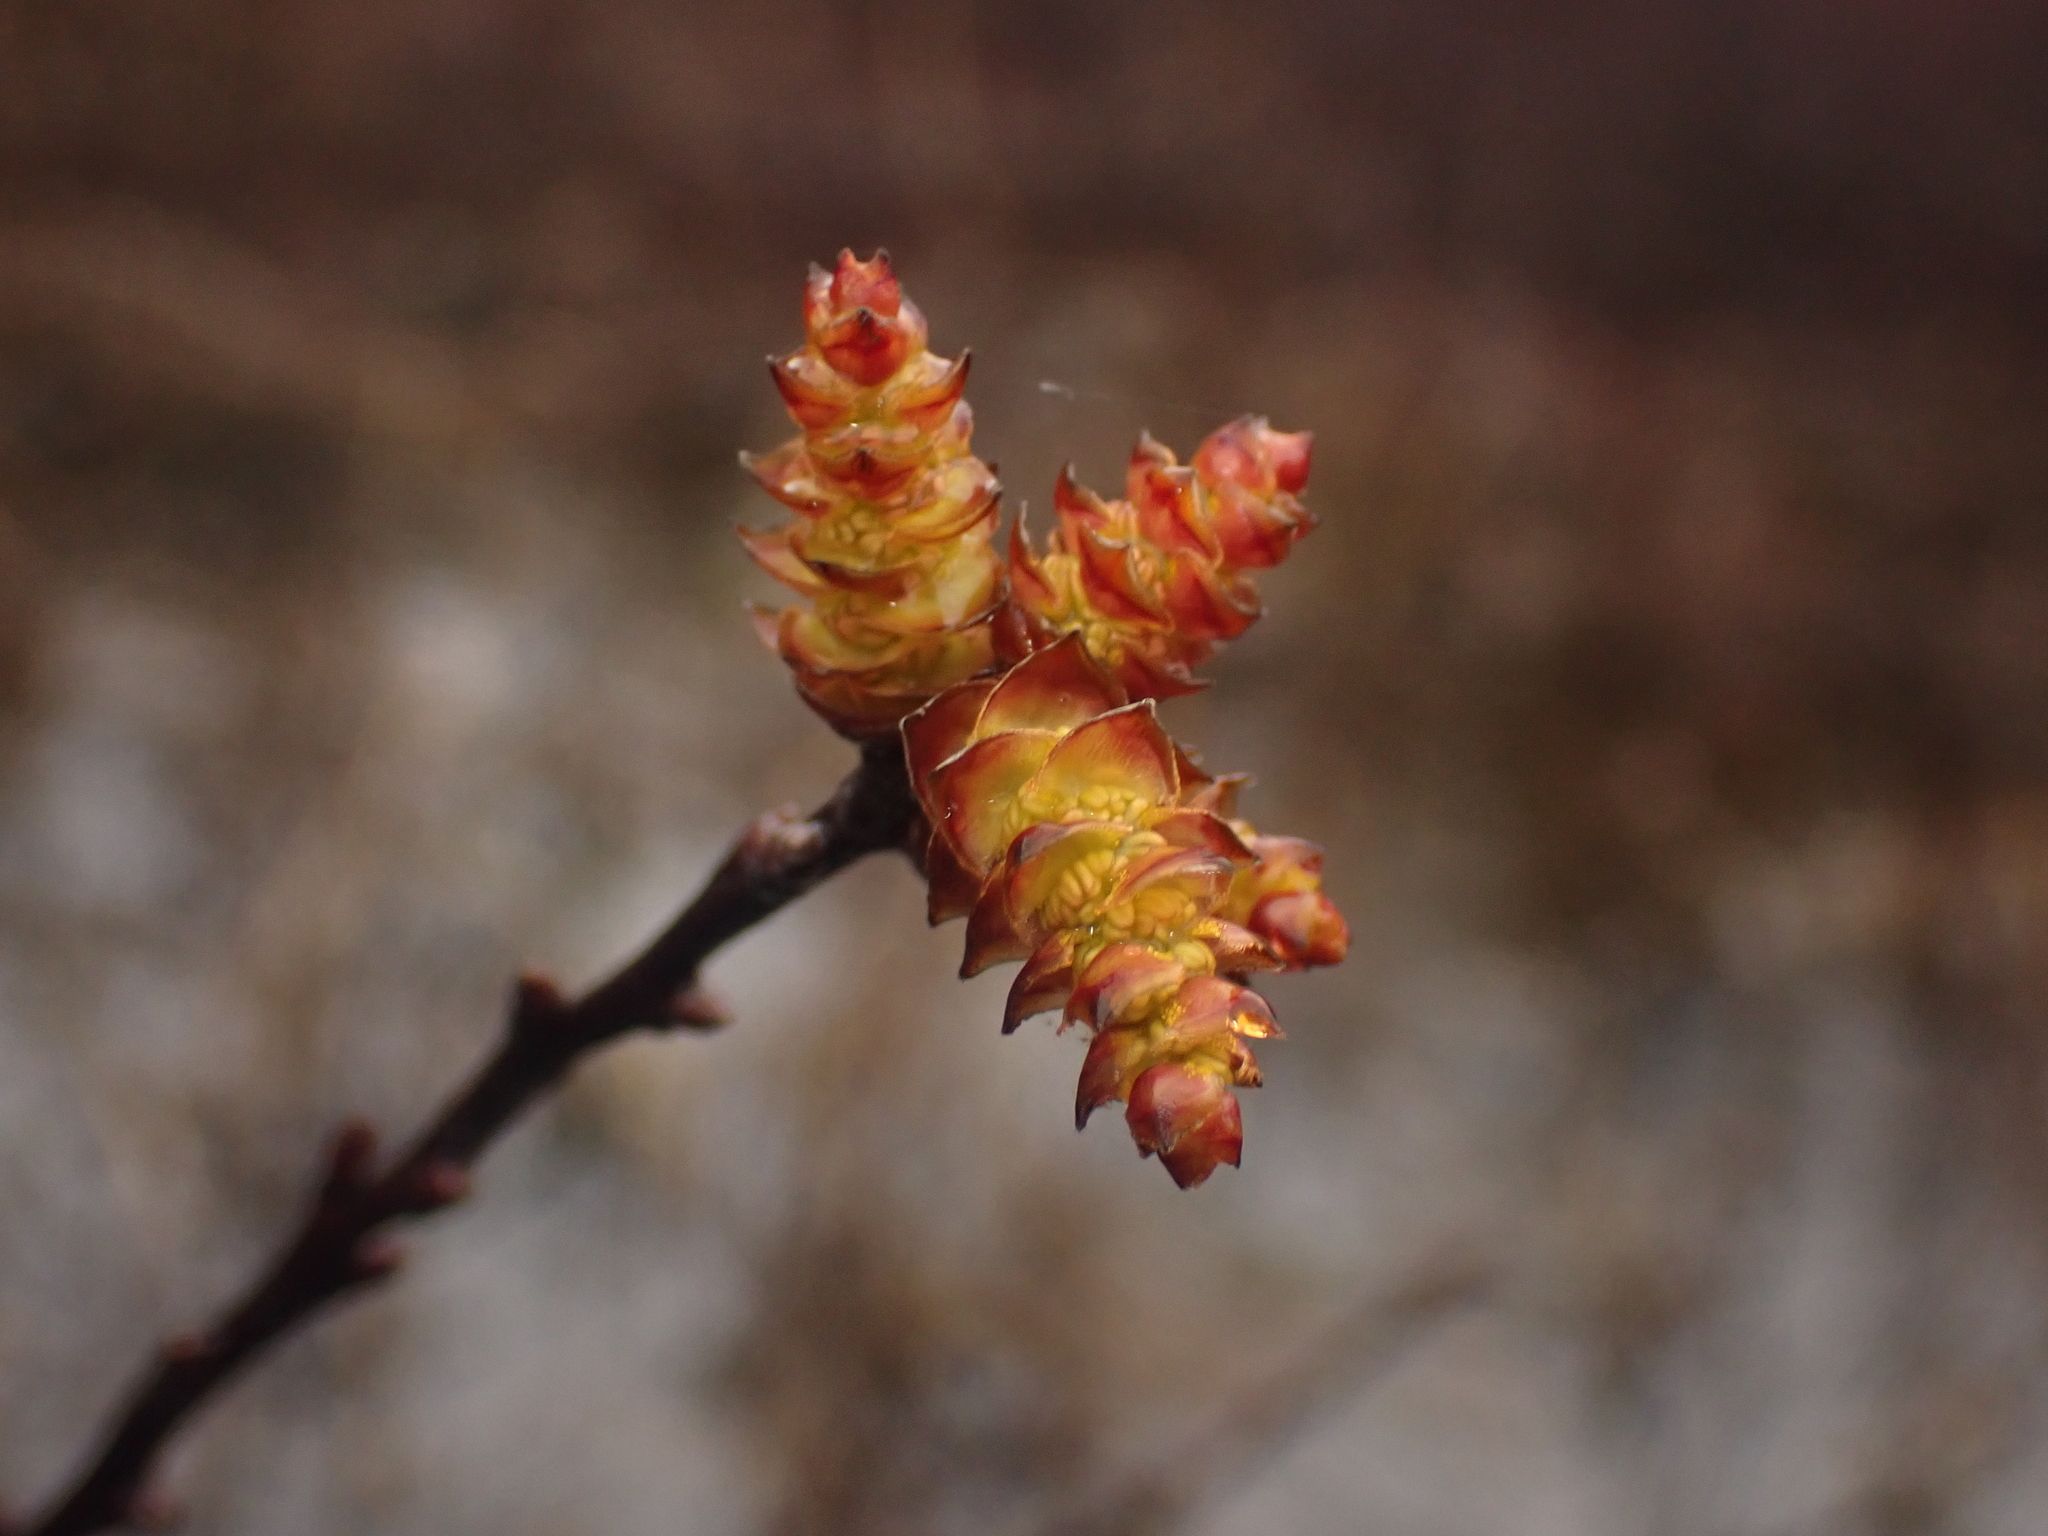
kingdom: Plantae
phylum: Tracheophyta
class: Magnoliopsida
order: Fagales
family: Myricaceae
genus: Myrica
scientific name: Myrica gale
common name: Sweet gale
